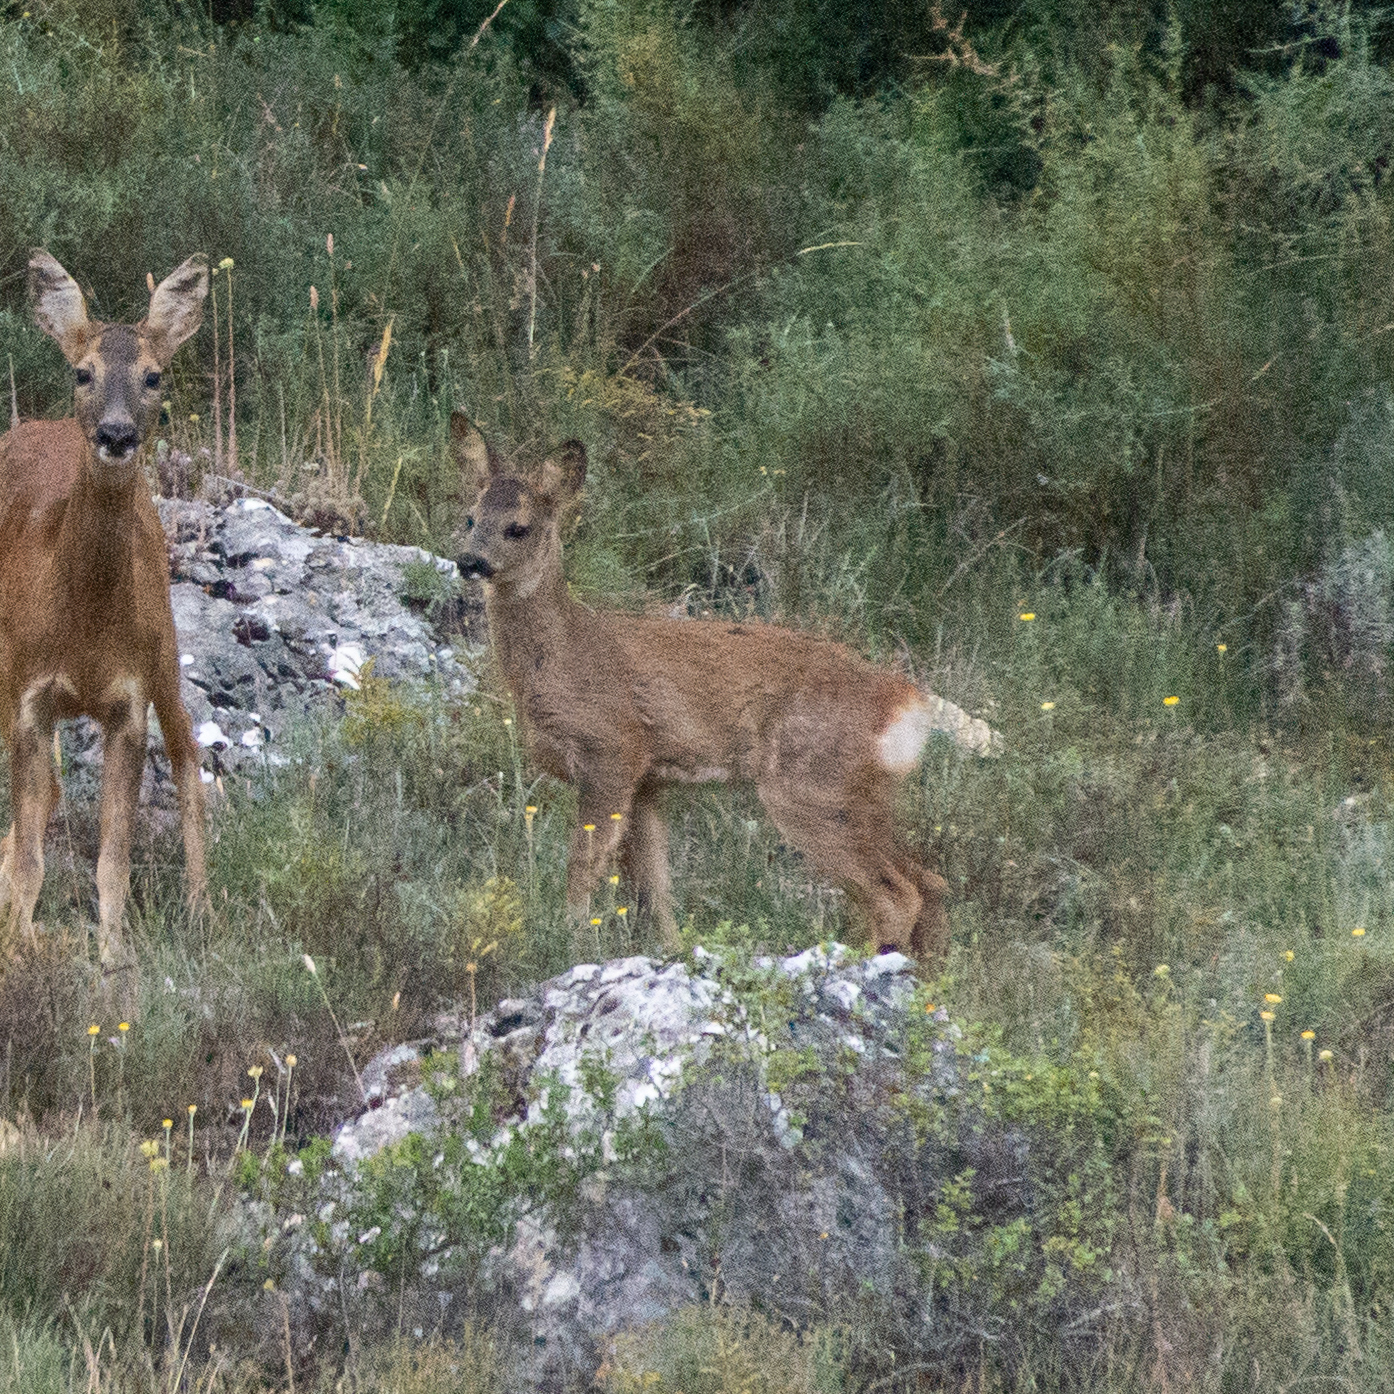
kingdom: Animalia
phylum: Chordata
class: Mammalia
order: Artiodactyla
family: Cervidae
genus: Capreolus
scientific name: Capreolus capreolus
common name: Western roe deer
